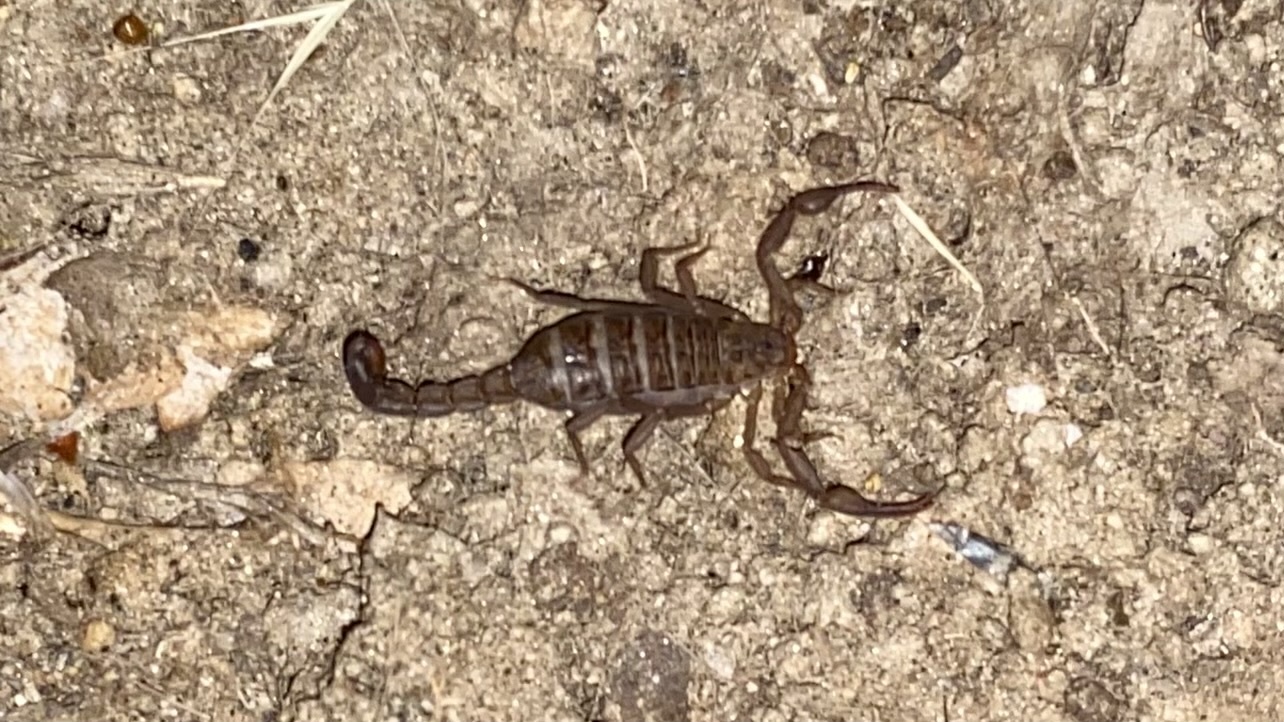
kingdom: Animalia
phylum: Arthropoda
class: Arachnida
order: Scorpiones
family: Vaejovidae
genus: Serradigitus
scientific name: Serradigitus gertschi
